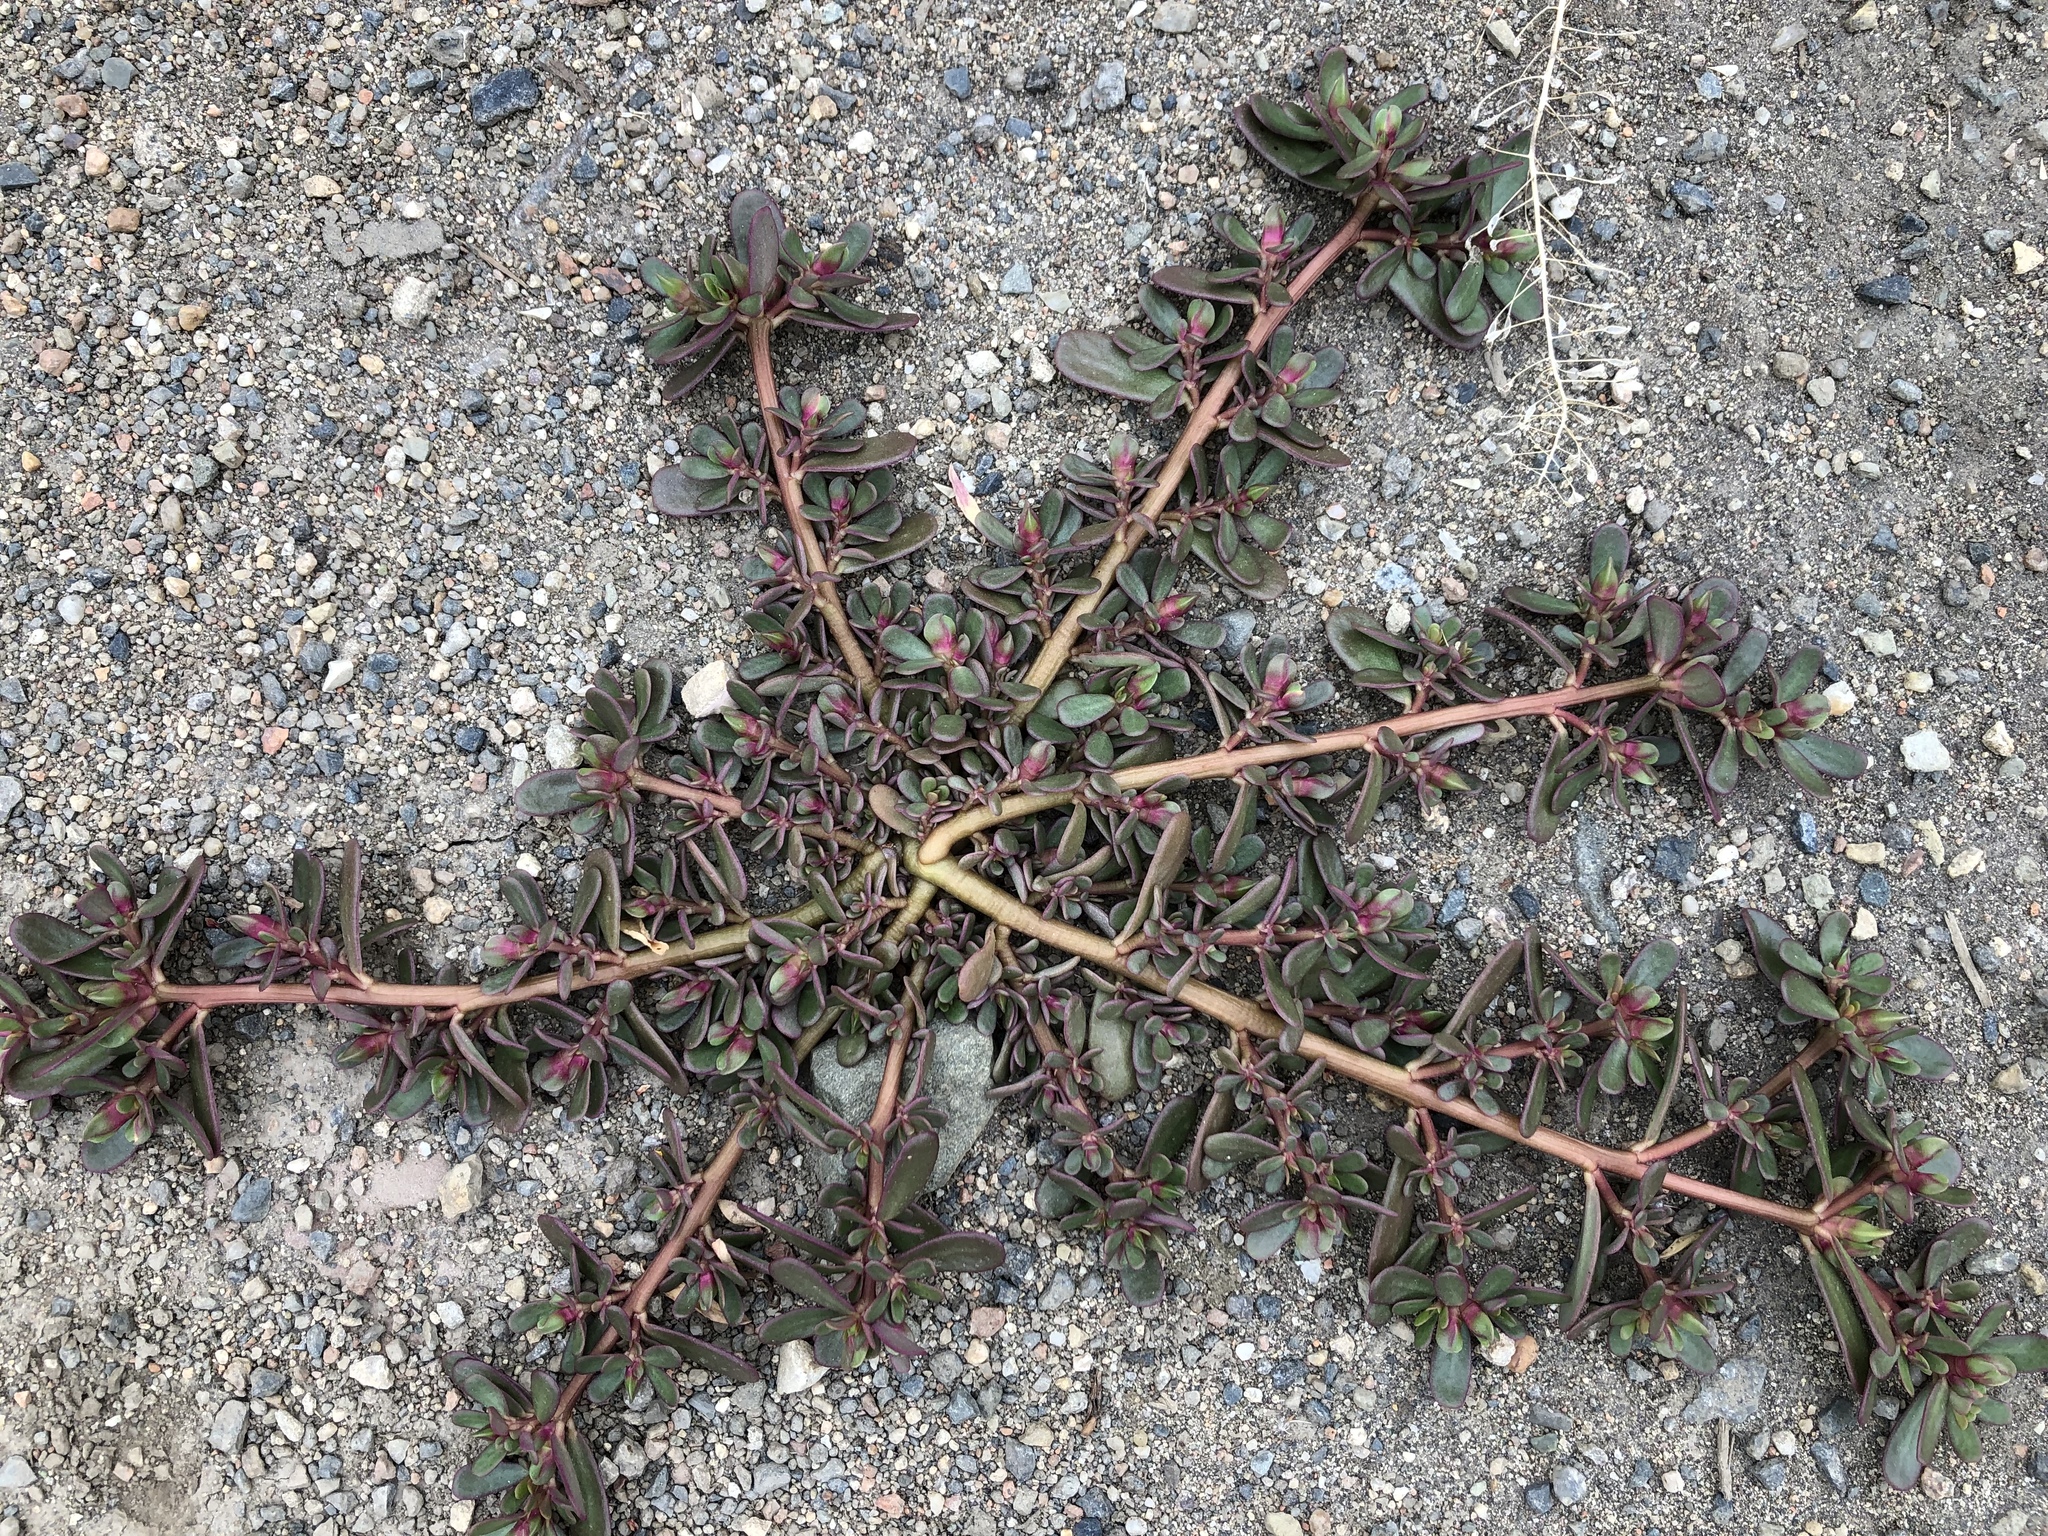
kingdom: Plantae
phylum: Tracheophyta
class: Magnoliopsida
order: Caryophyllales
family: Portulacaceae
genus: Portulaca
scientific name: Portulaca oleracea
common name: Common purslane
